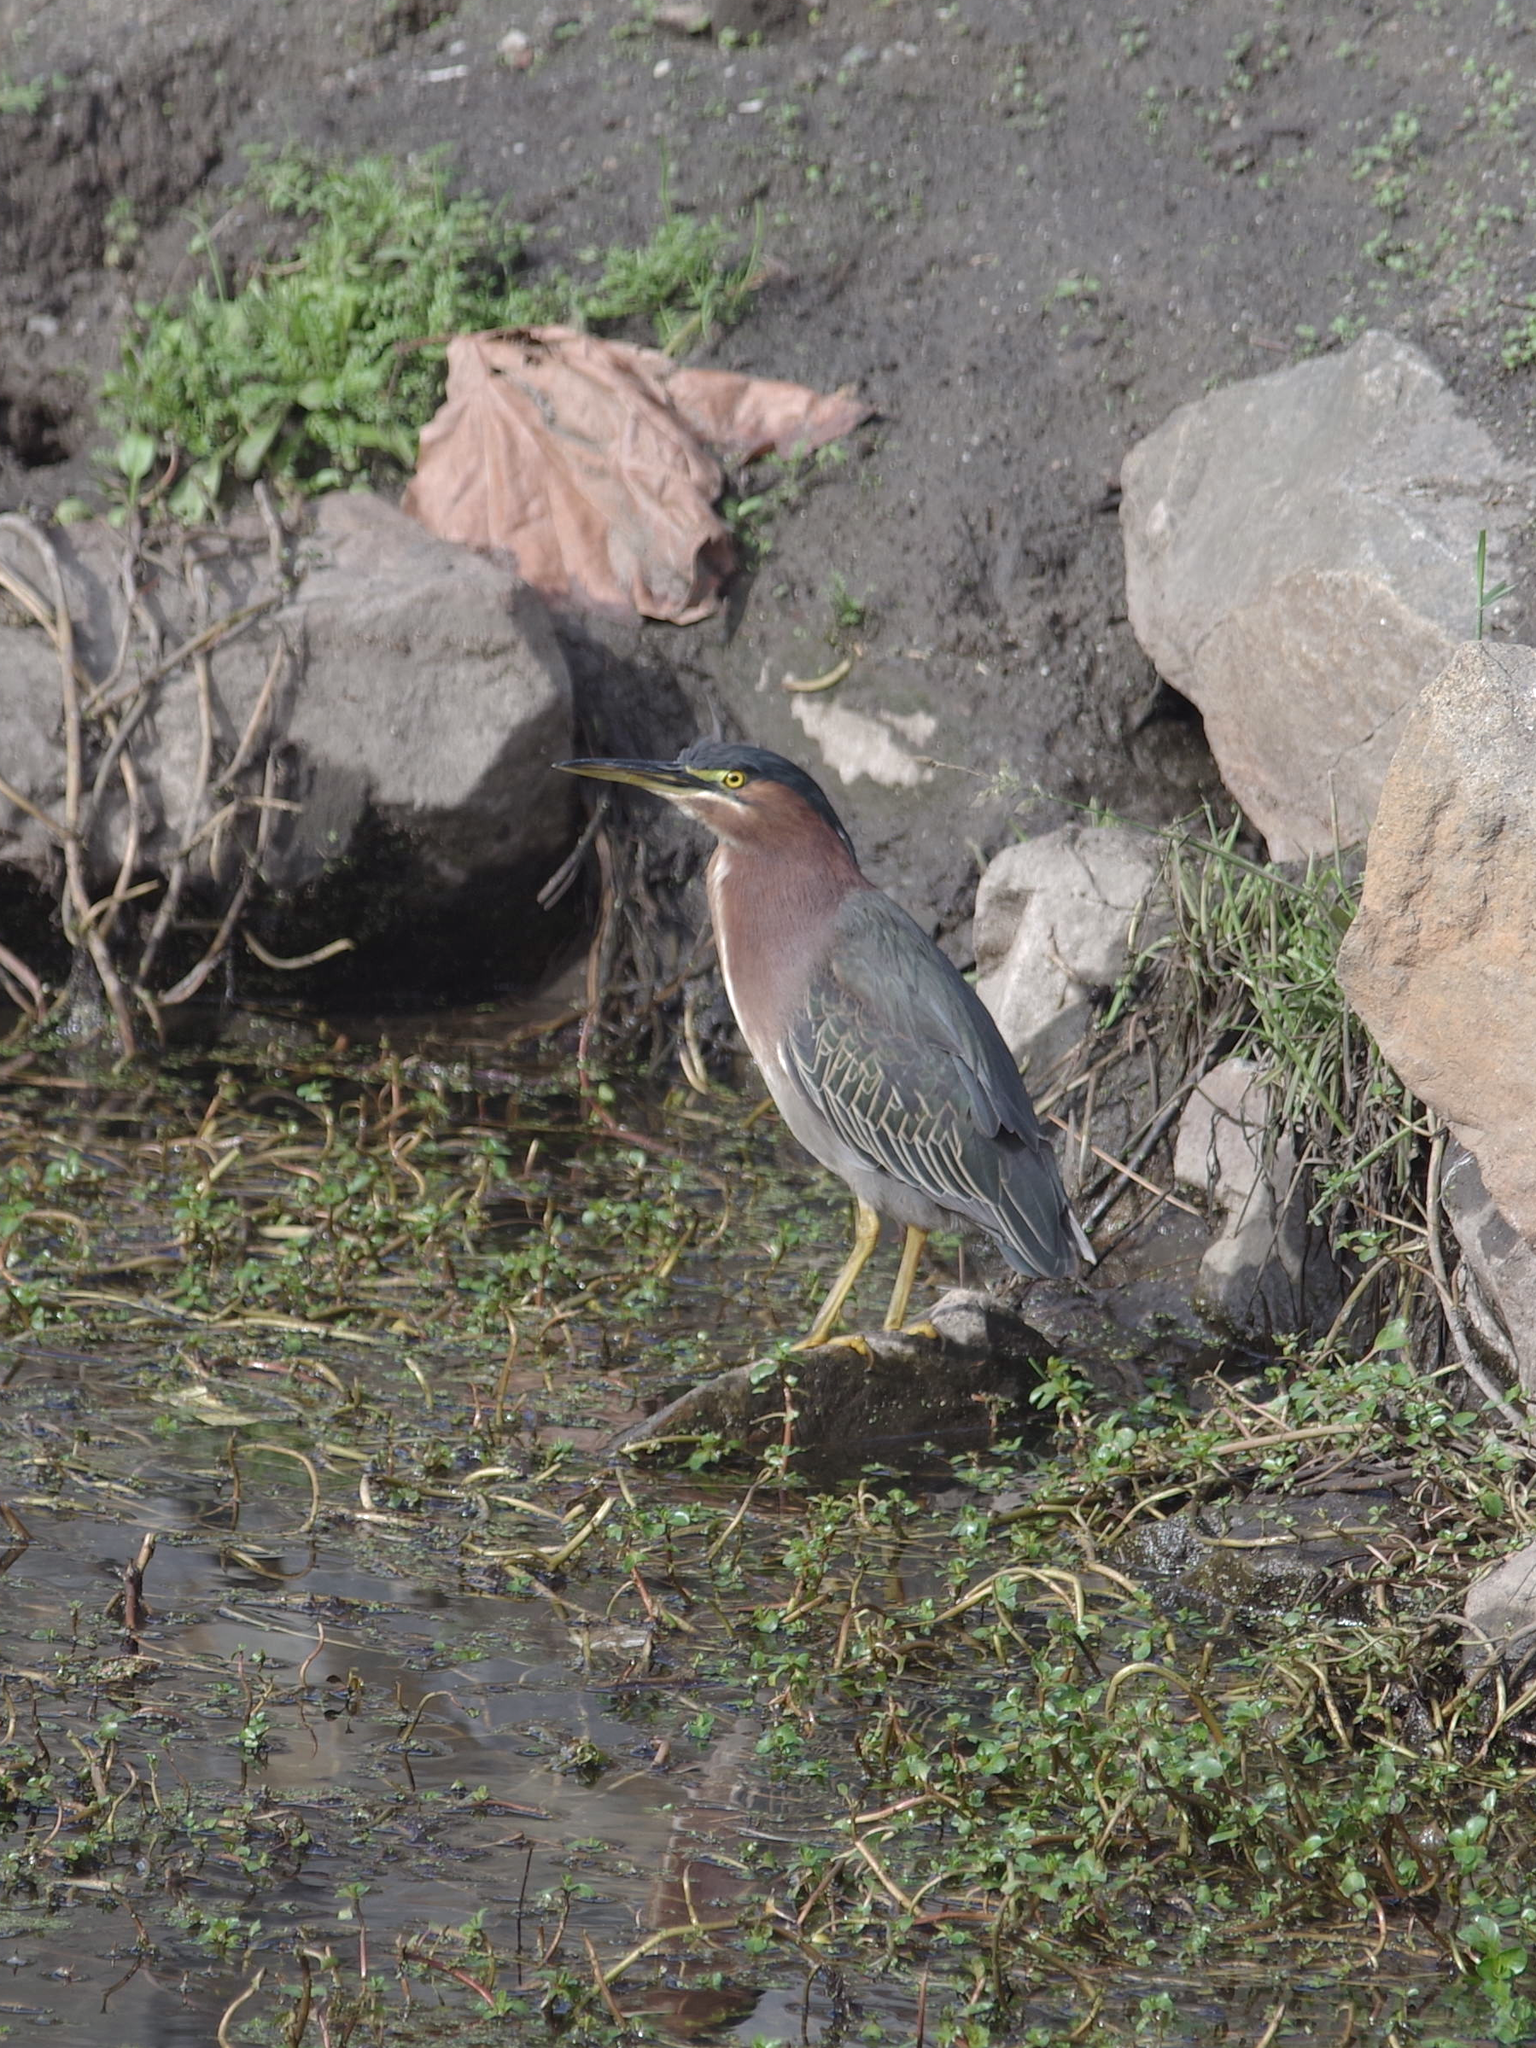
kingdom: Animalia
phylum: Chordata
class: Aves
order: Pelecaniformes
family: Ardeidae
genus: Butorides
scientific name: Butorides virescens
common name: Green heron
